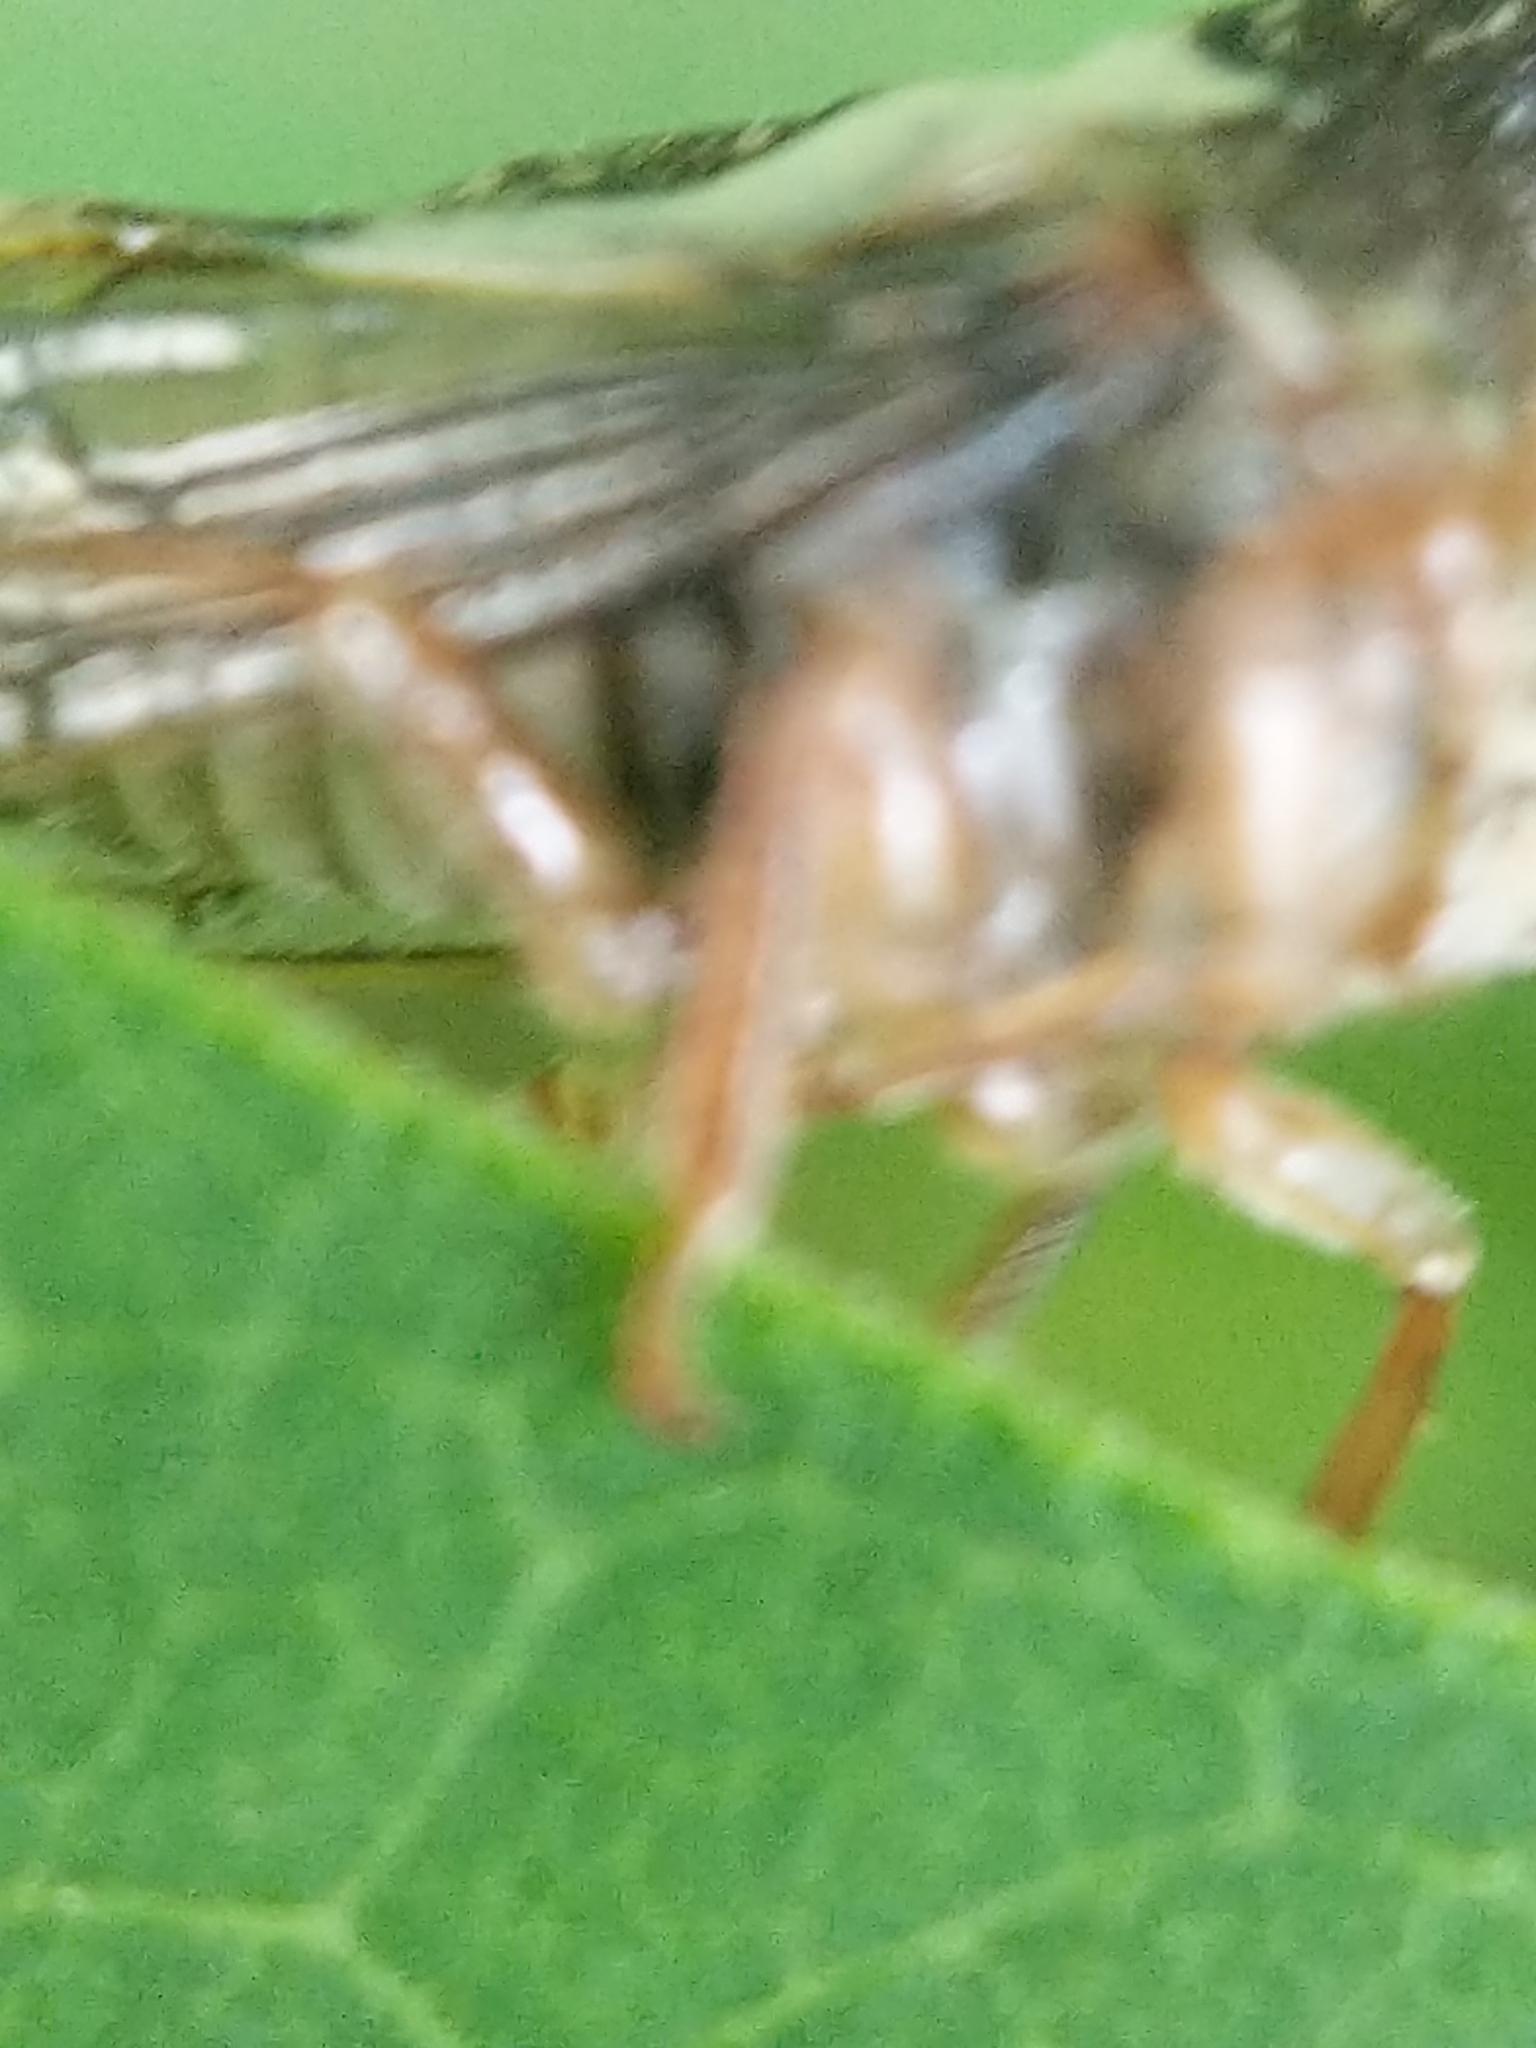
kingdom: Animalia
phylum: Arthropoda
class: Insecta
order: Hemiptera
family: Membracidae
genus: Thelia
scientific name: Thelia bimaculata
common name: Locust treehopper
